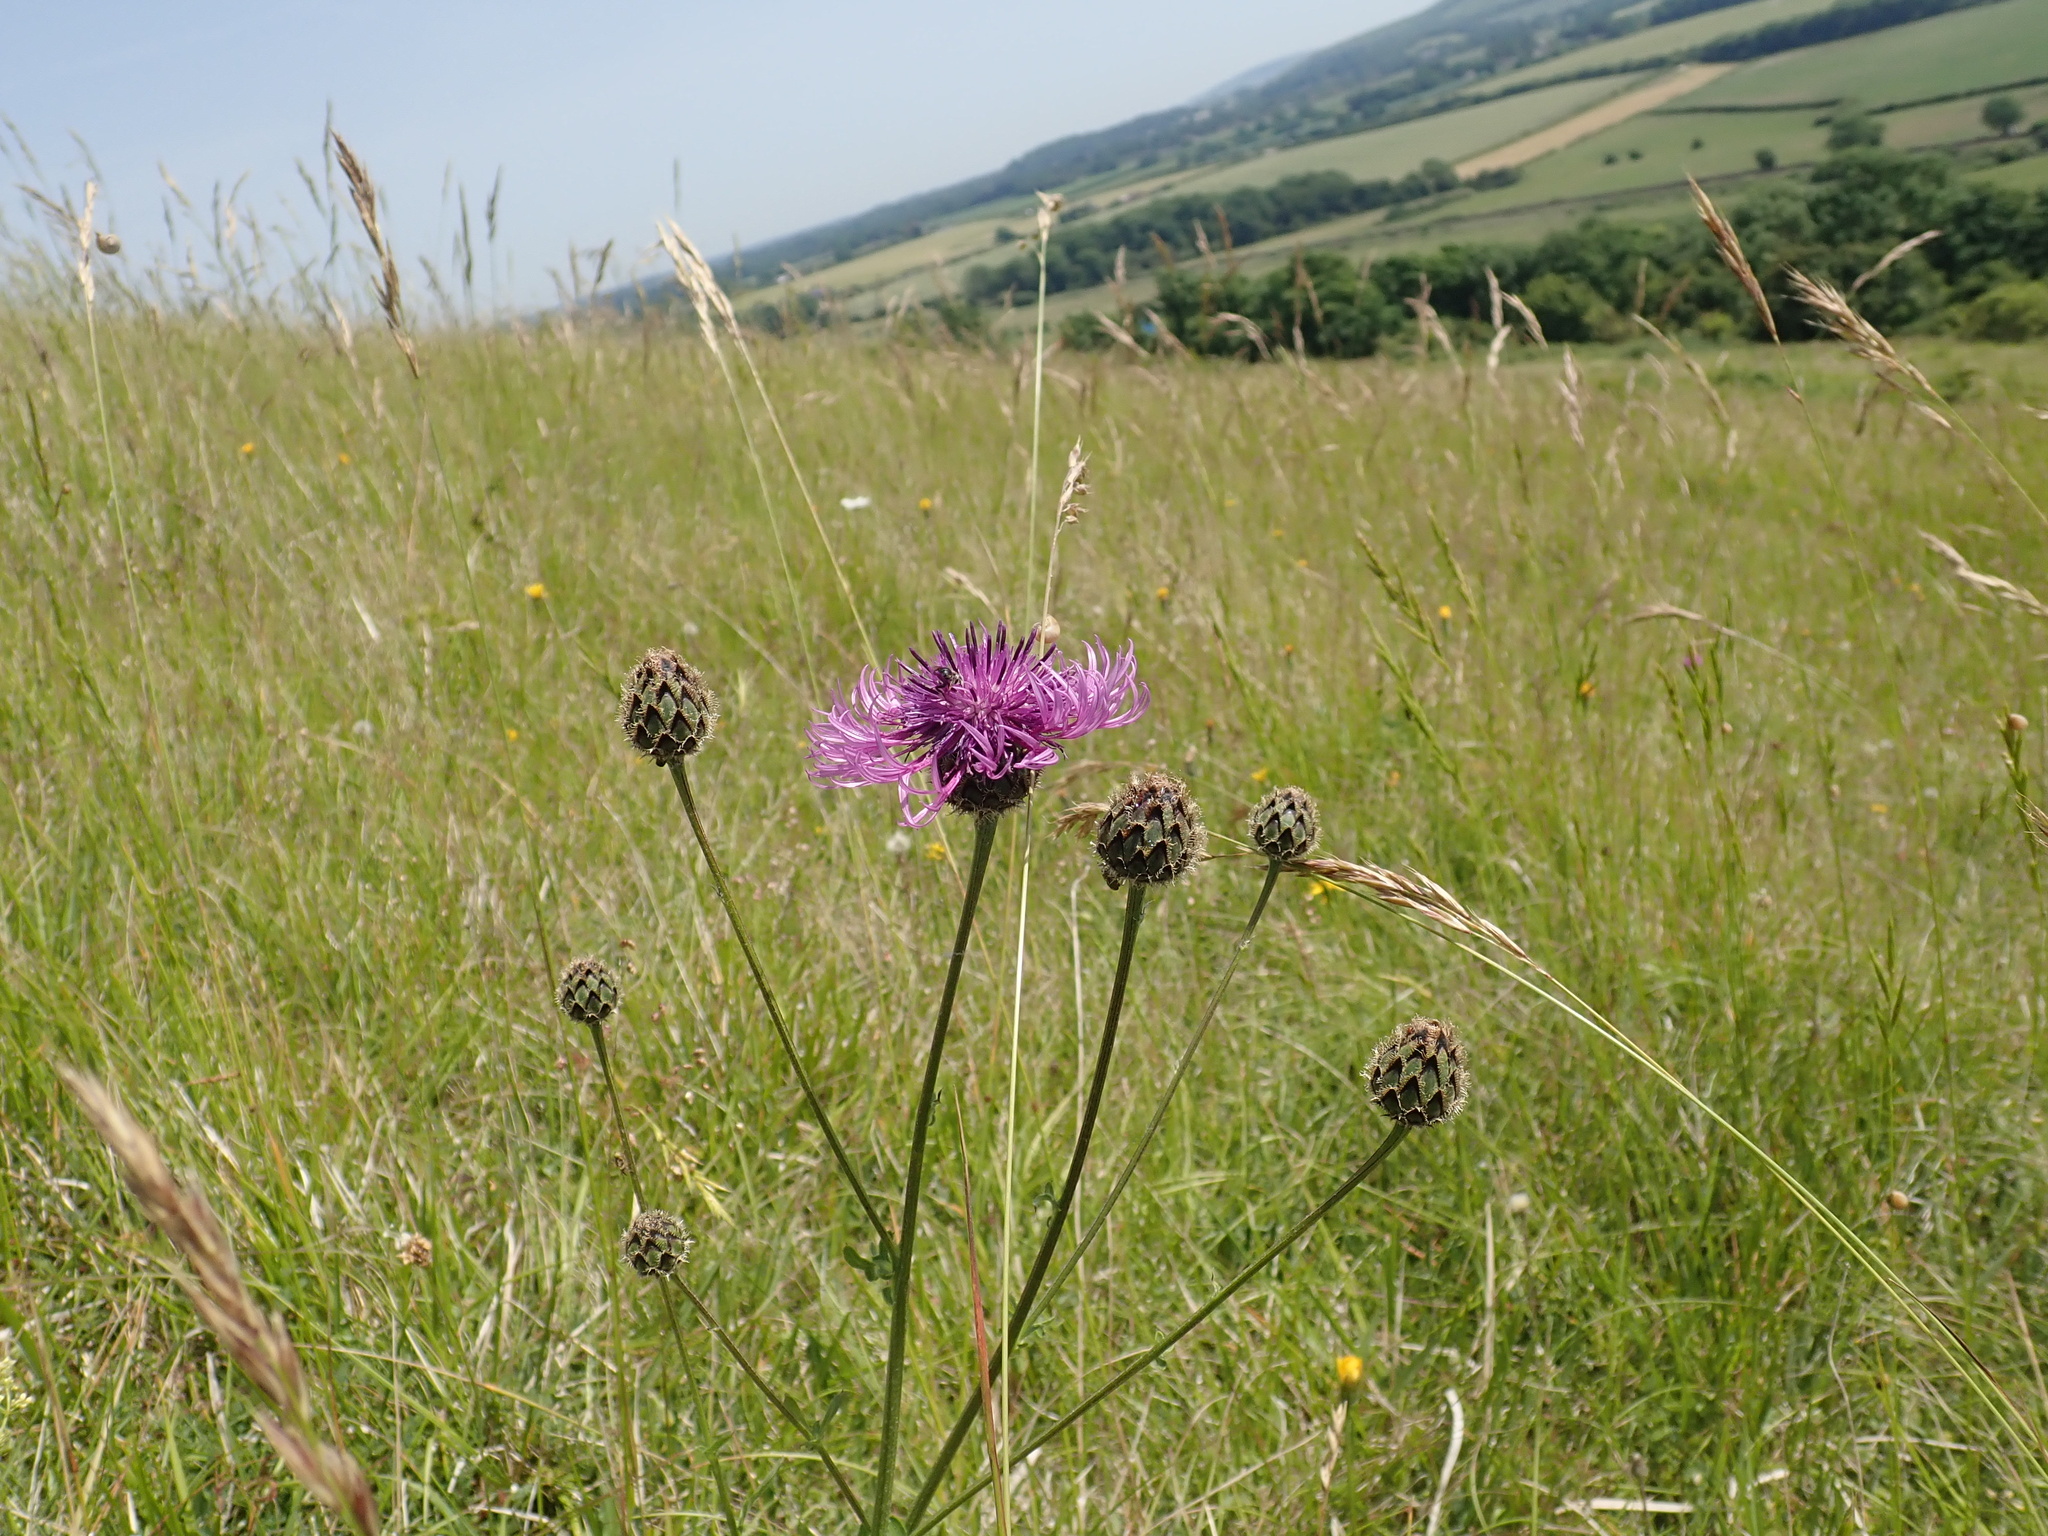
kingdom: Plantae
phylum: Tracheophyta
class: Magnoliopsida
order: Asterales
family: Asteraceae
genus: Centaurea
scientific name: Centaurea scabiosa
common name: Greater knapweed
